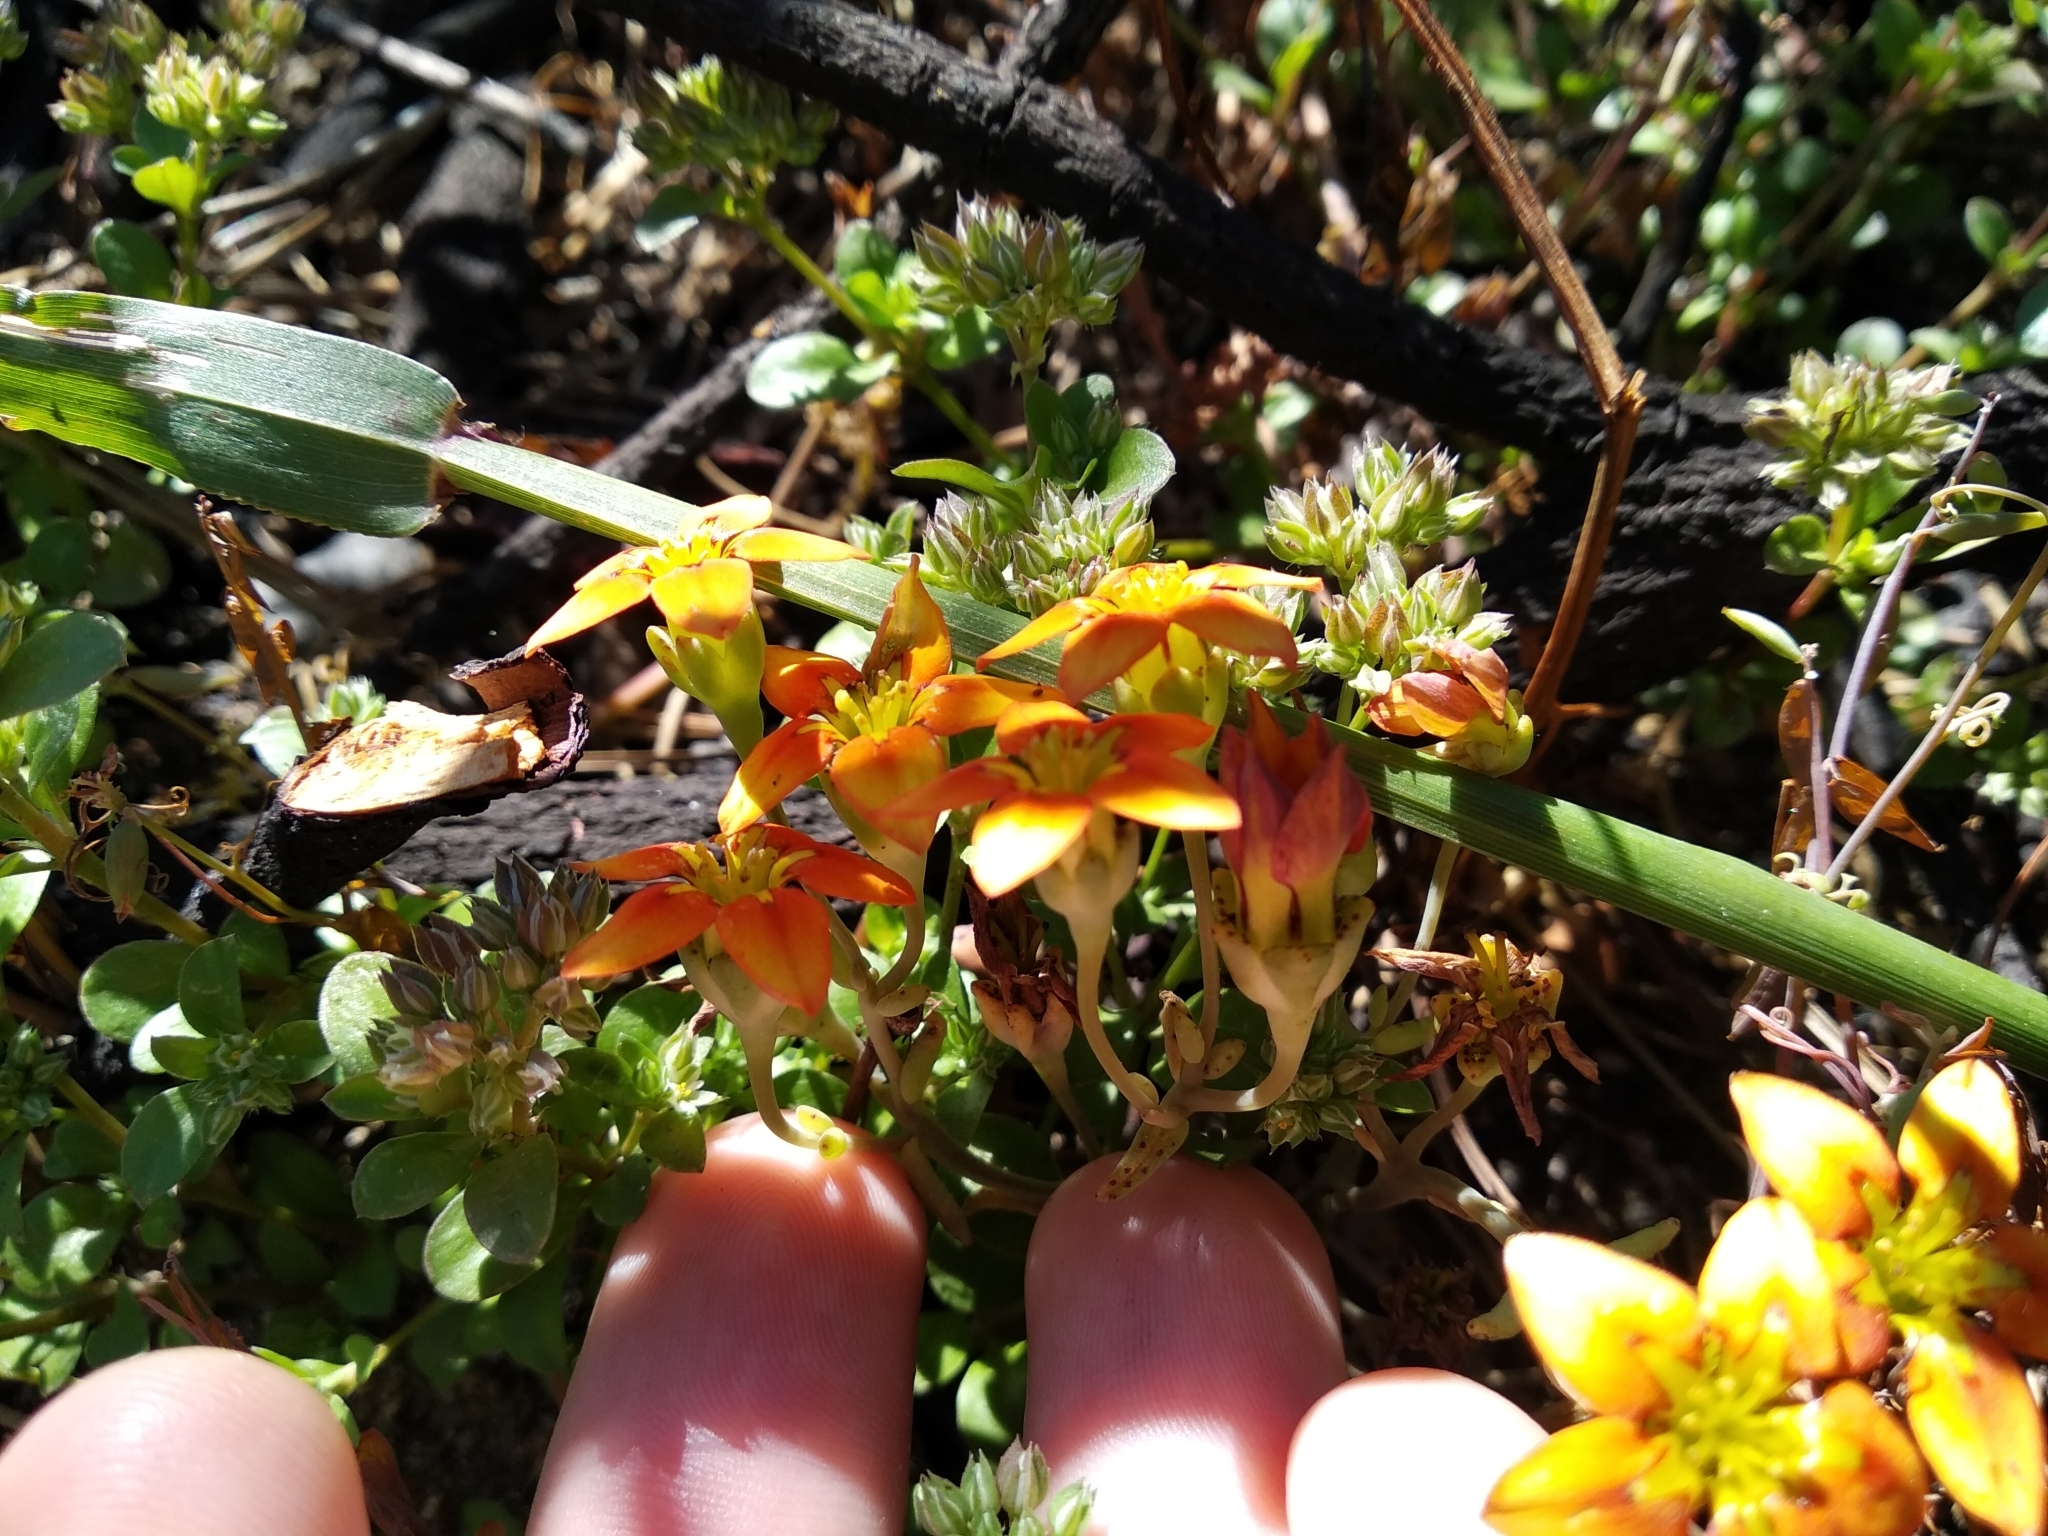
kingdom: Plantae
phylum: Tracheophyta
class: Magnoliopsida
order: Saxifragales
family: Crassulaceae
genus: Crassula
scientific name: Crassula dichotoma
